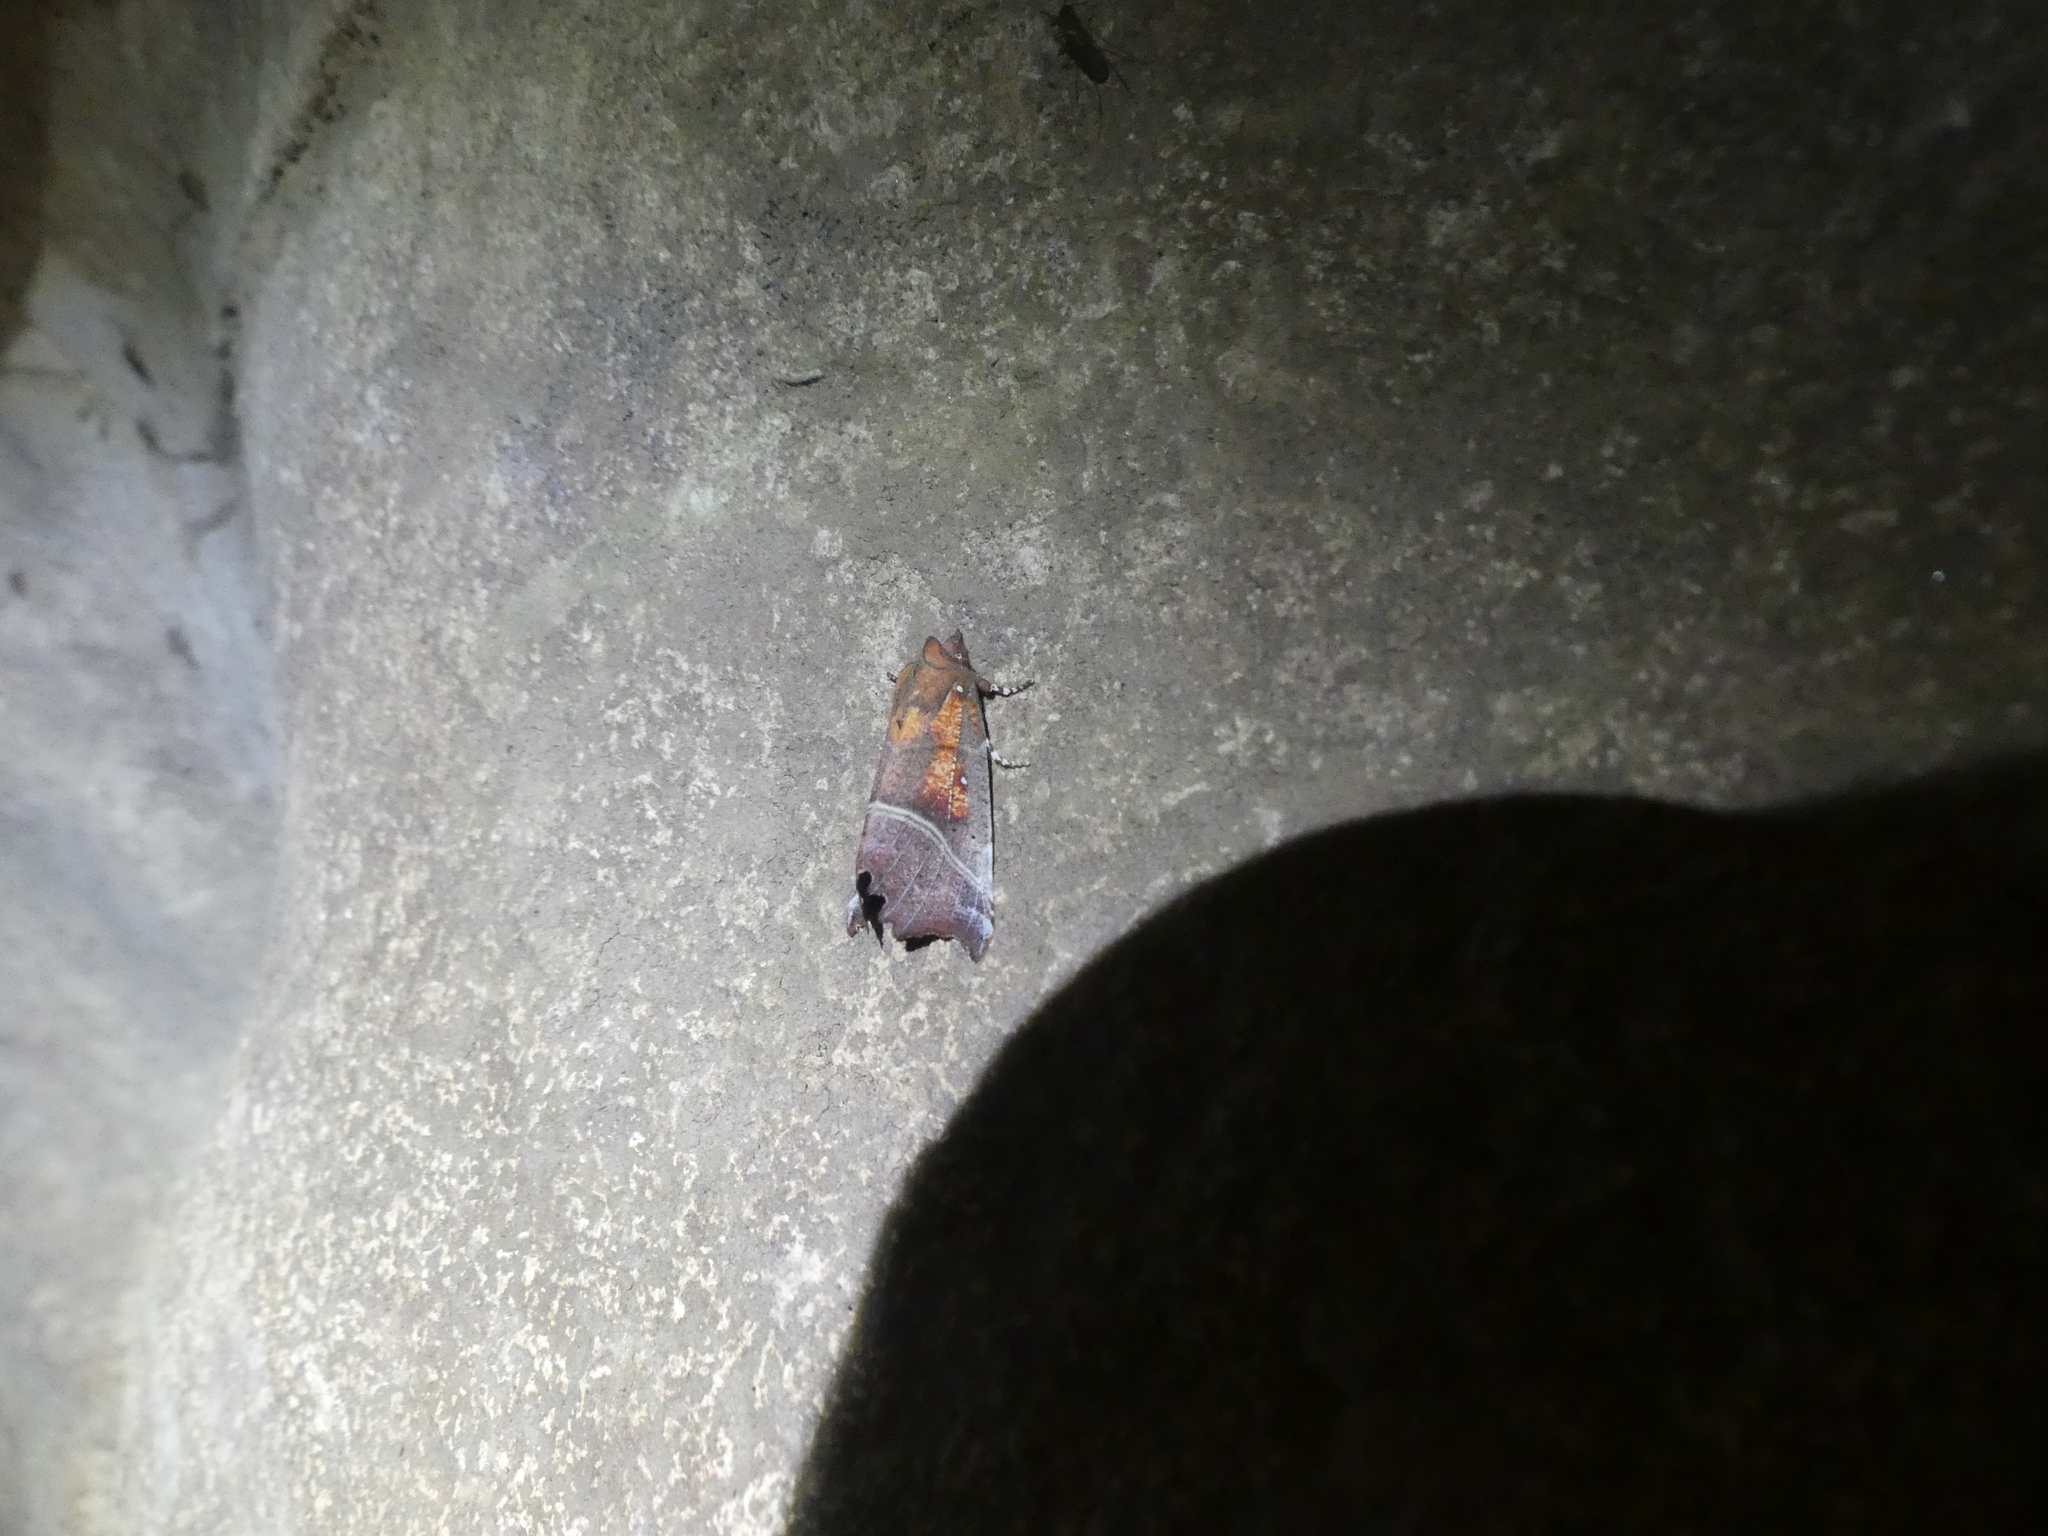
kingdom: Animalia
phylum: Arthropoda
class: Insecta
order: Lepidoptera
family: Erebidae
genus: Scoliopteryx
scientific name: Scoliopteryx libatrix
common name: Herald
